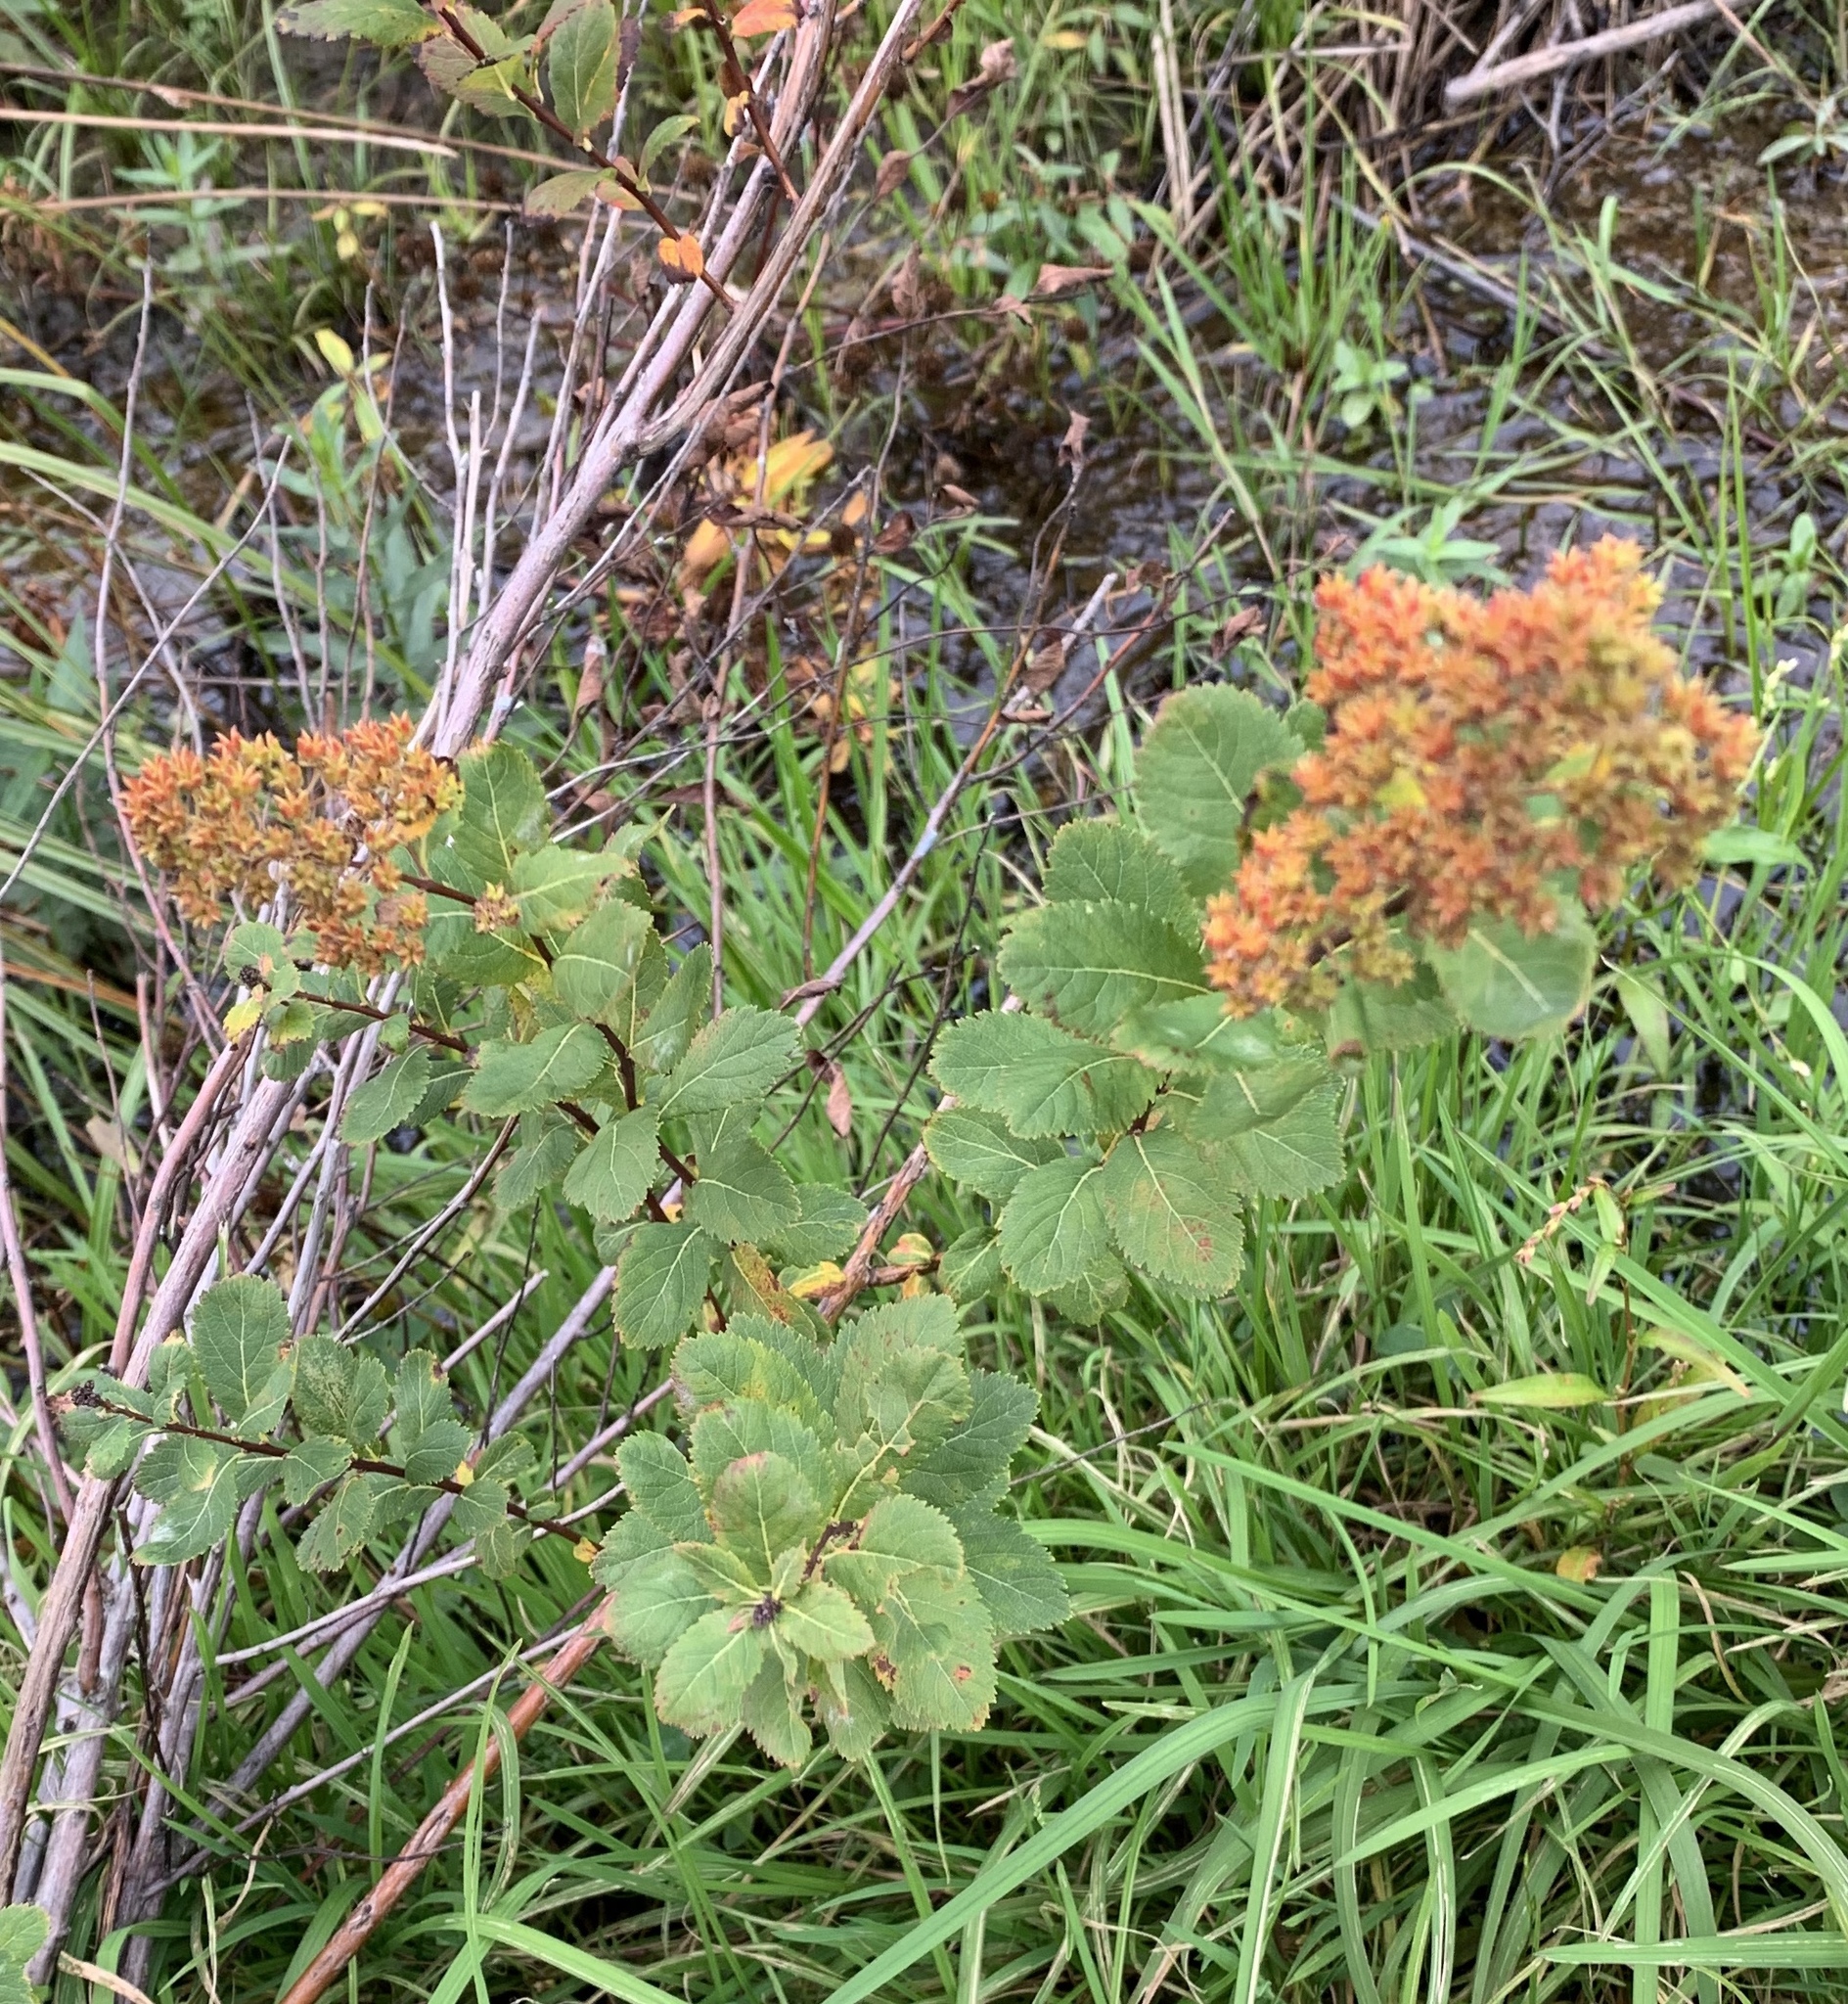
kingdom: Plantae
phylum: Tracheophyta
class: Magnoliopsida
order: Rosales
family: Rosaceae
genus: Spiraea
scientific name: Spiraea alba
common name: Pale bridewort
